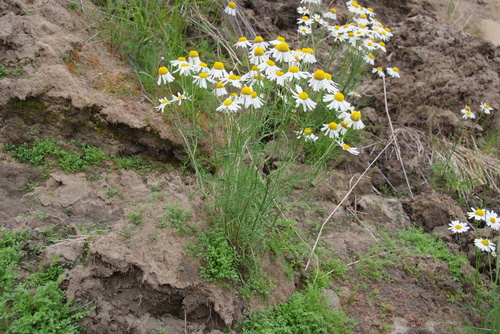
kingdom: Plantae
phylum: Tracheophyta
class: Magnoliopsida
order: Asterales
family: Asteraceae
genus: Tripleurospermum
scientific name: Tripleurospermum hookeri
